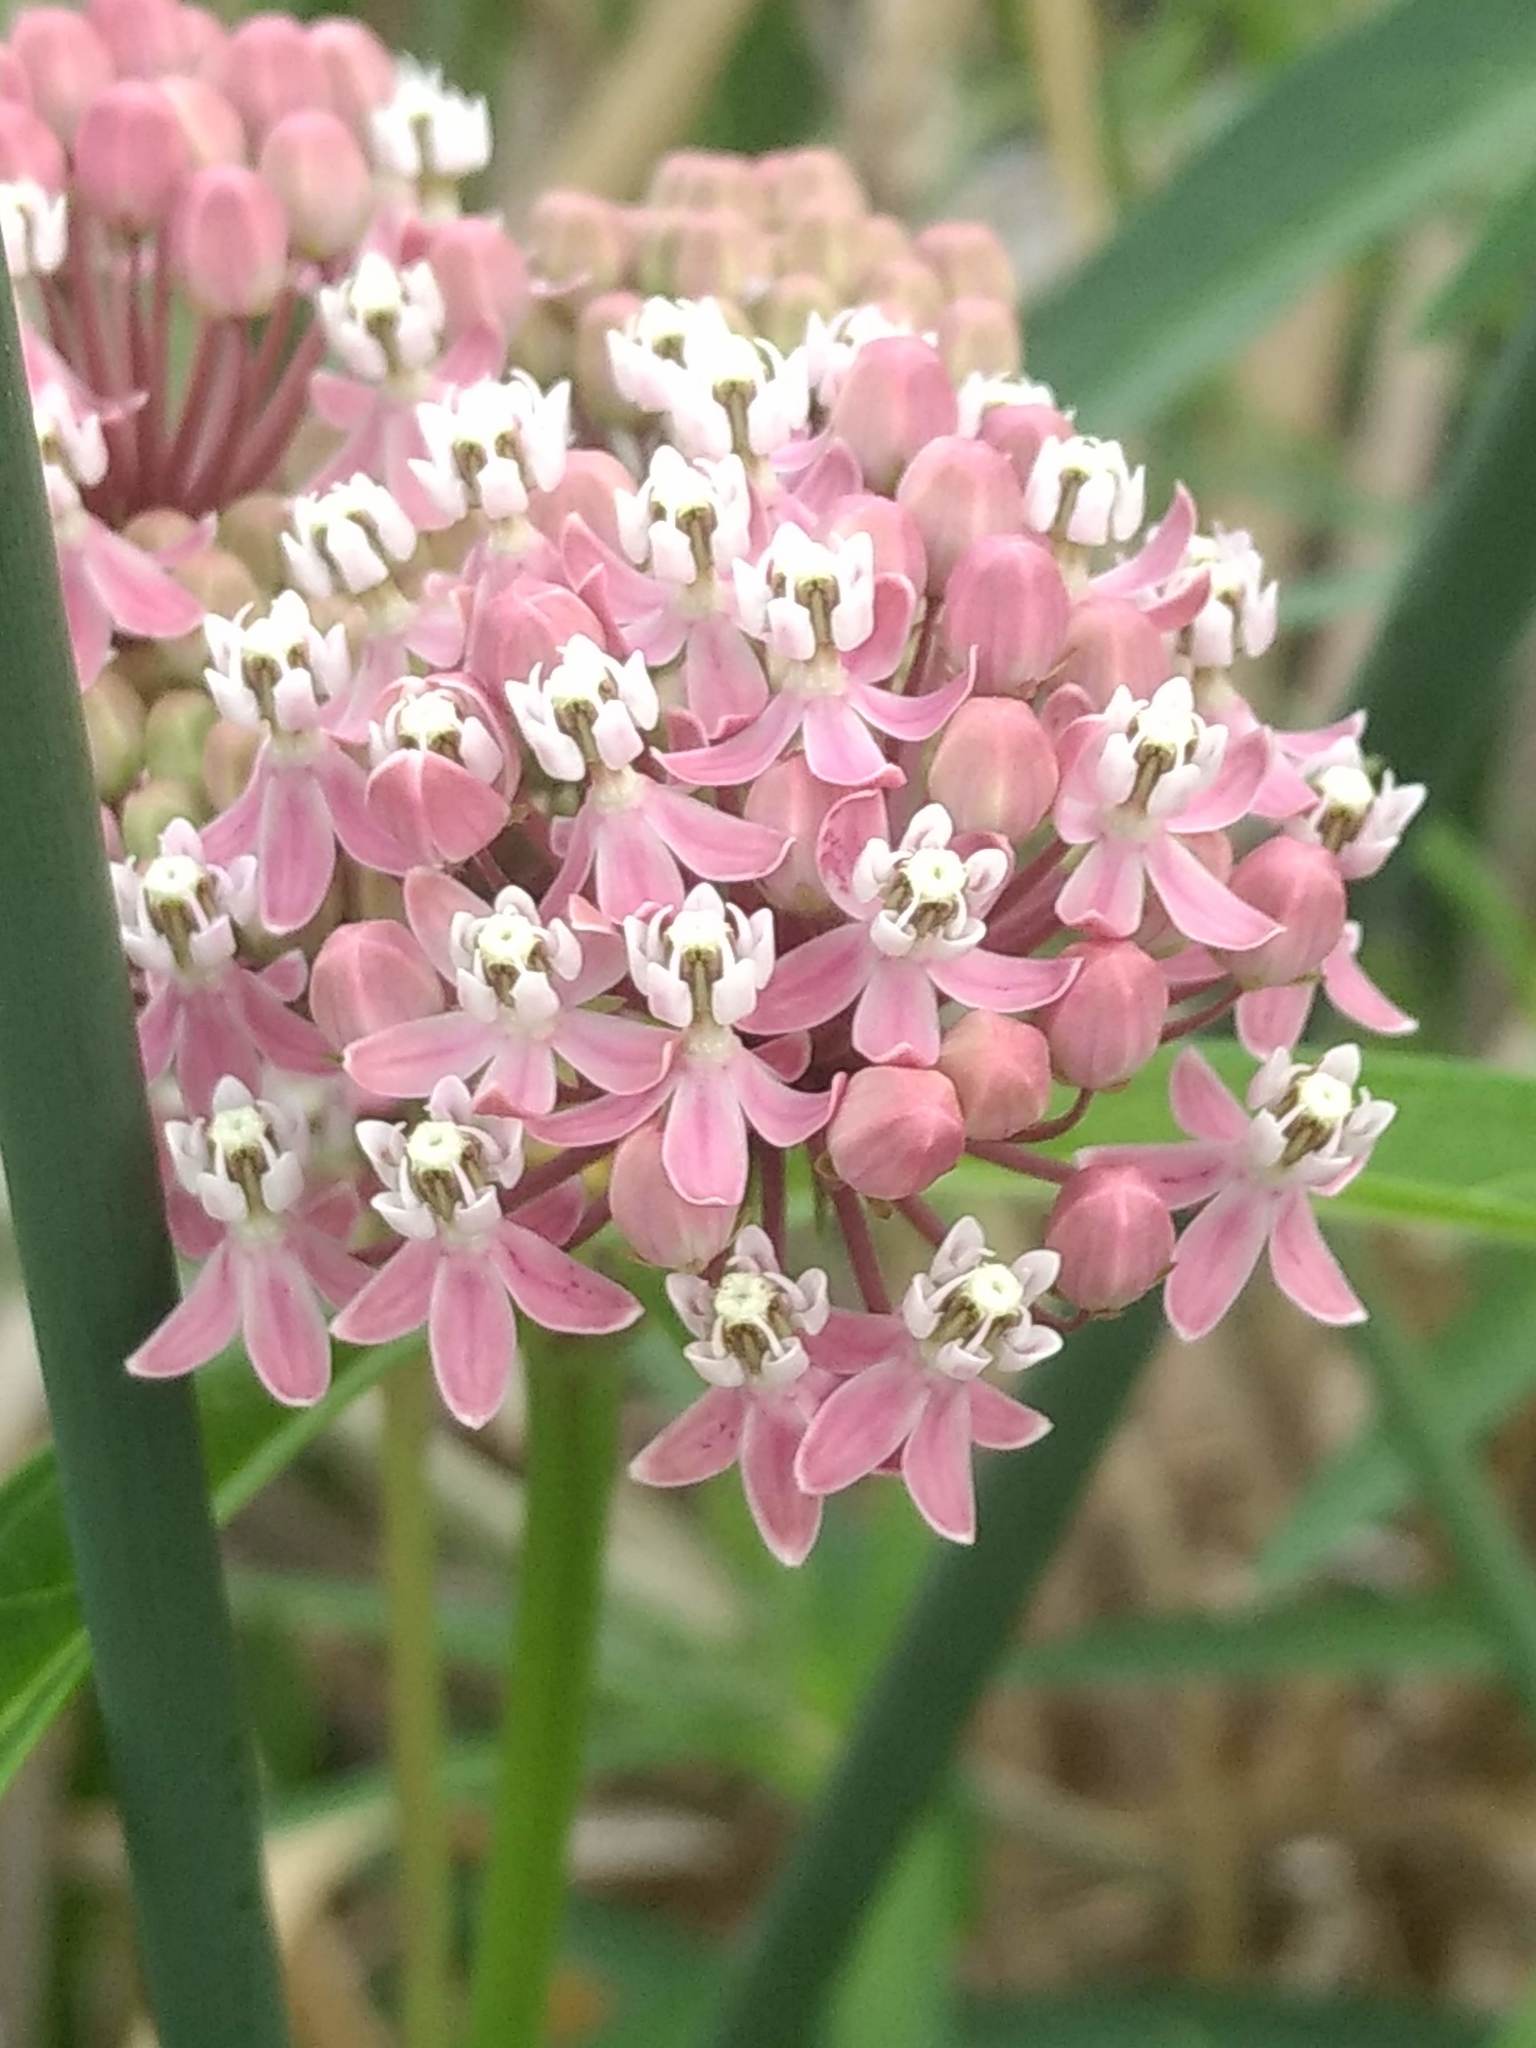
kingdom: Plantae
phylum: Tracheophyta
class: Magnoliopsida
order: Gentianales
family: Apocynaceae
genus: Asclepias
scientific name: Asclepias incarnata
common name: Swamp milkweed
